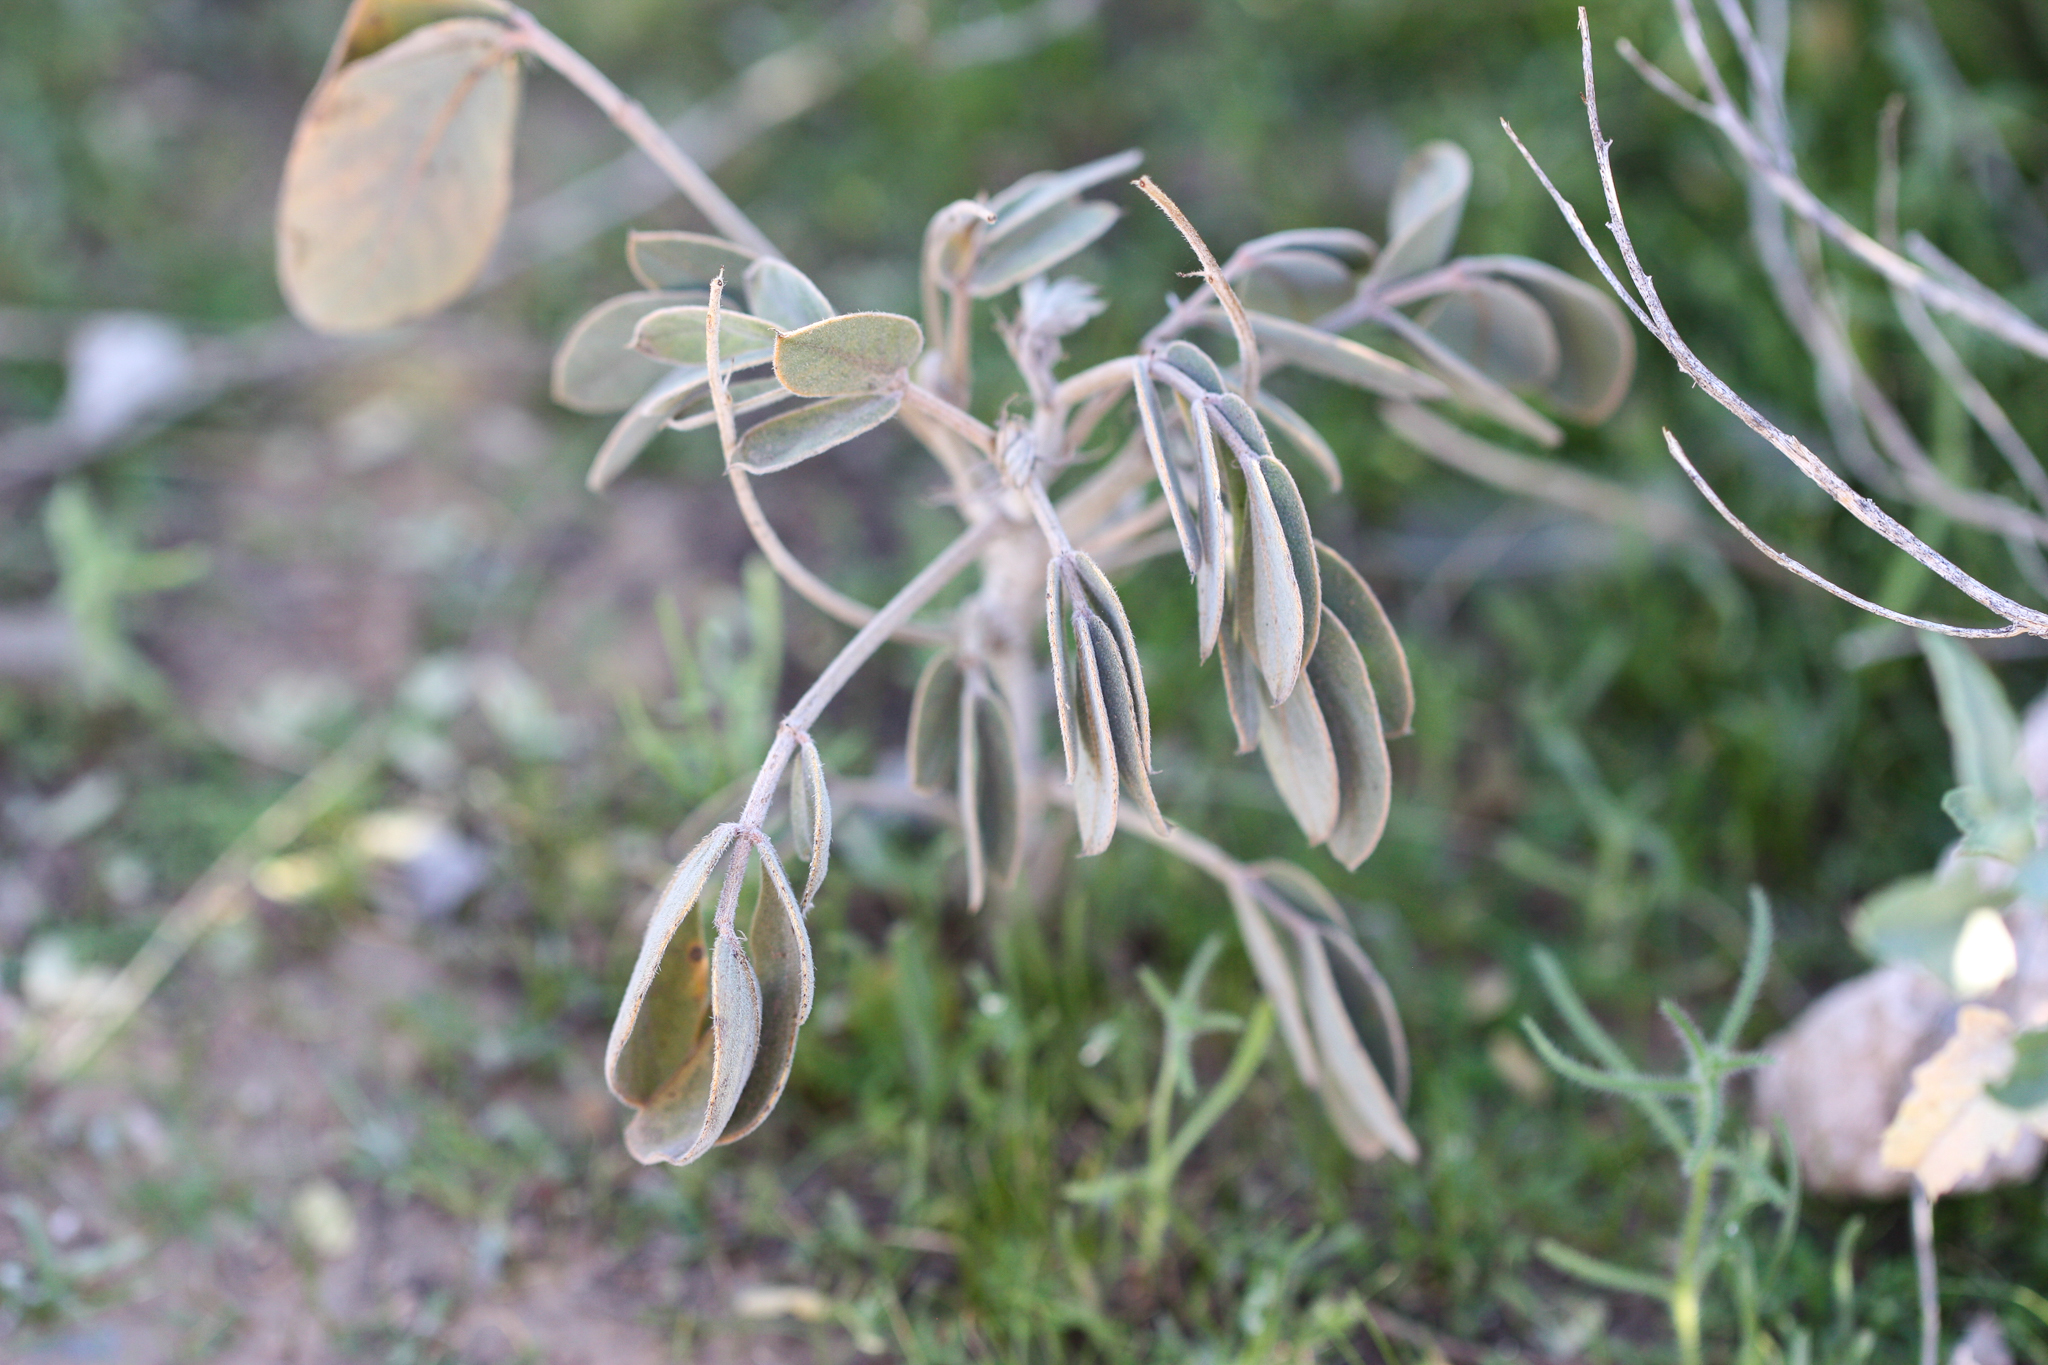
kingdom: Plantae
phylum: Tracheophyta
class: Magnoliopsida
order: Fabales
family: Fabaceae
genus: Senna
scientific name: Senna covesii
